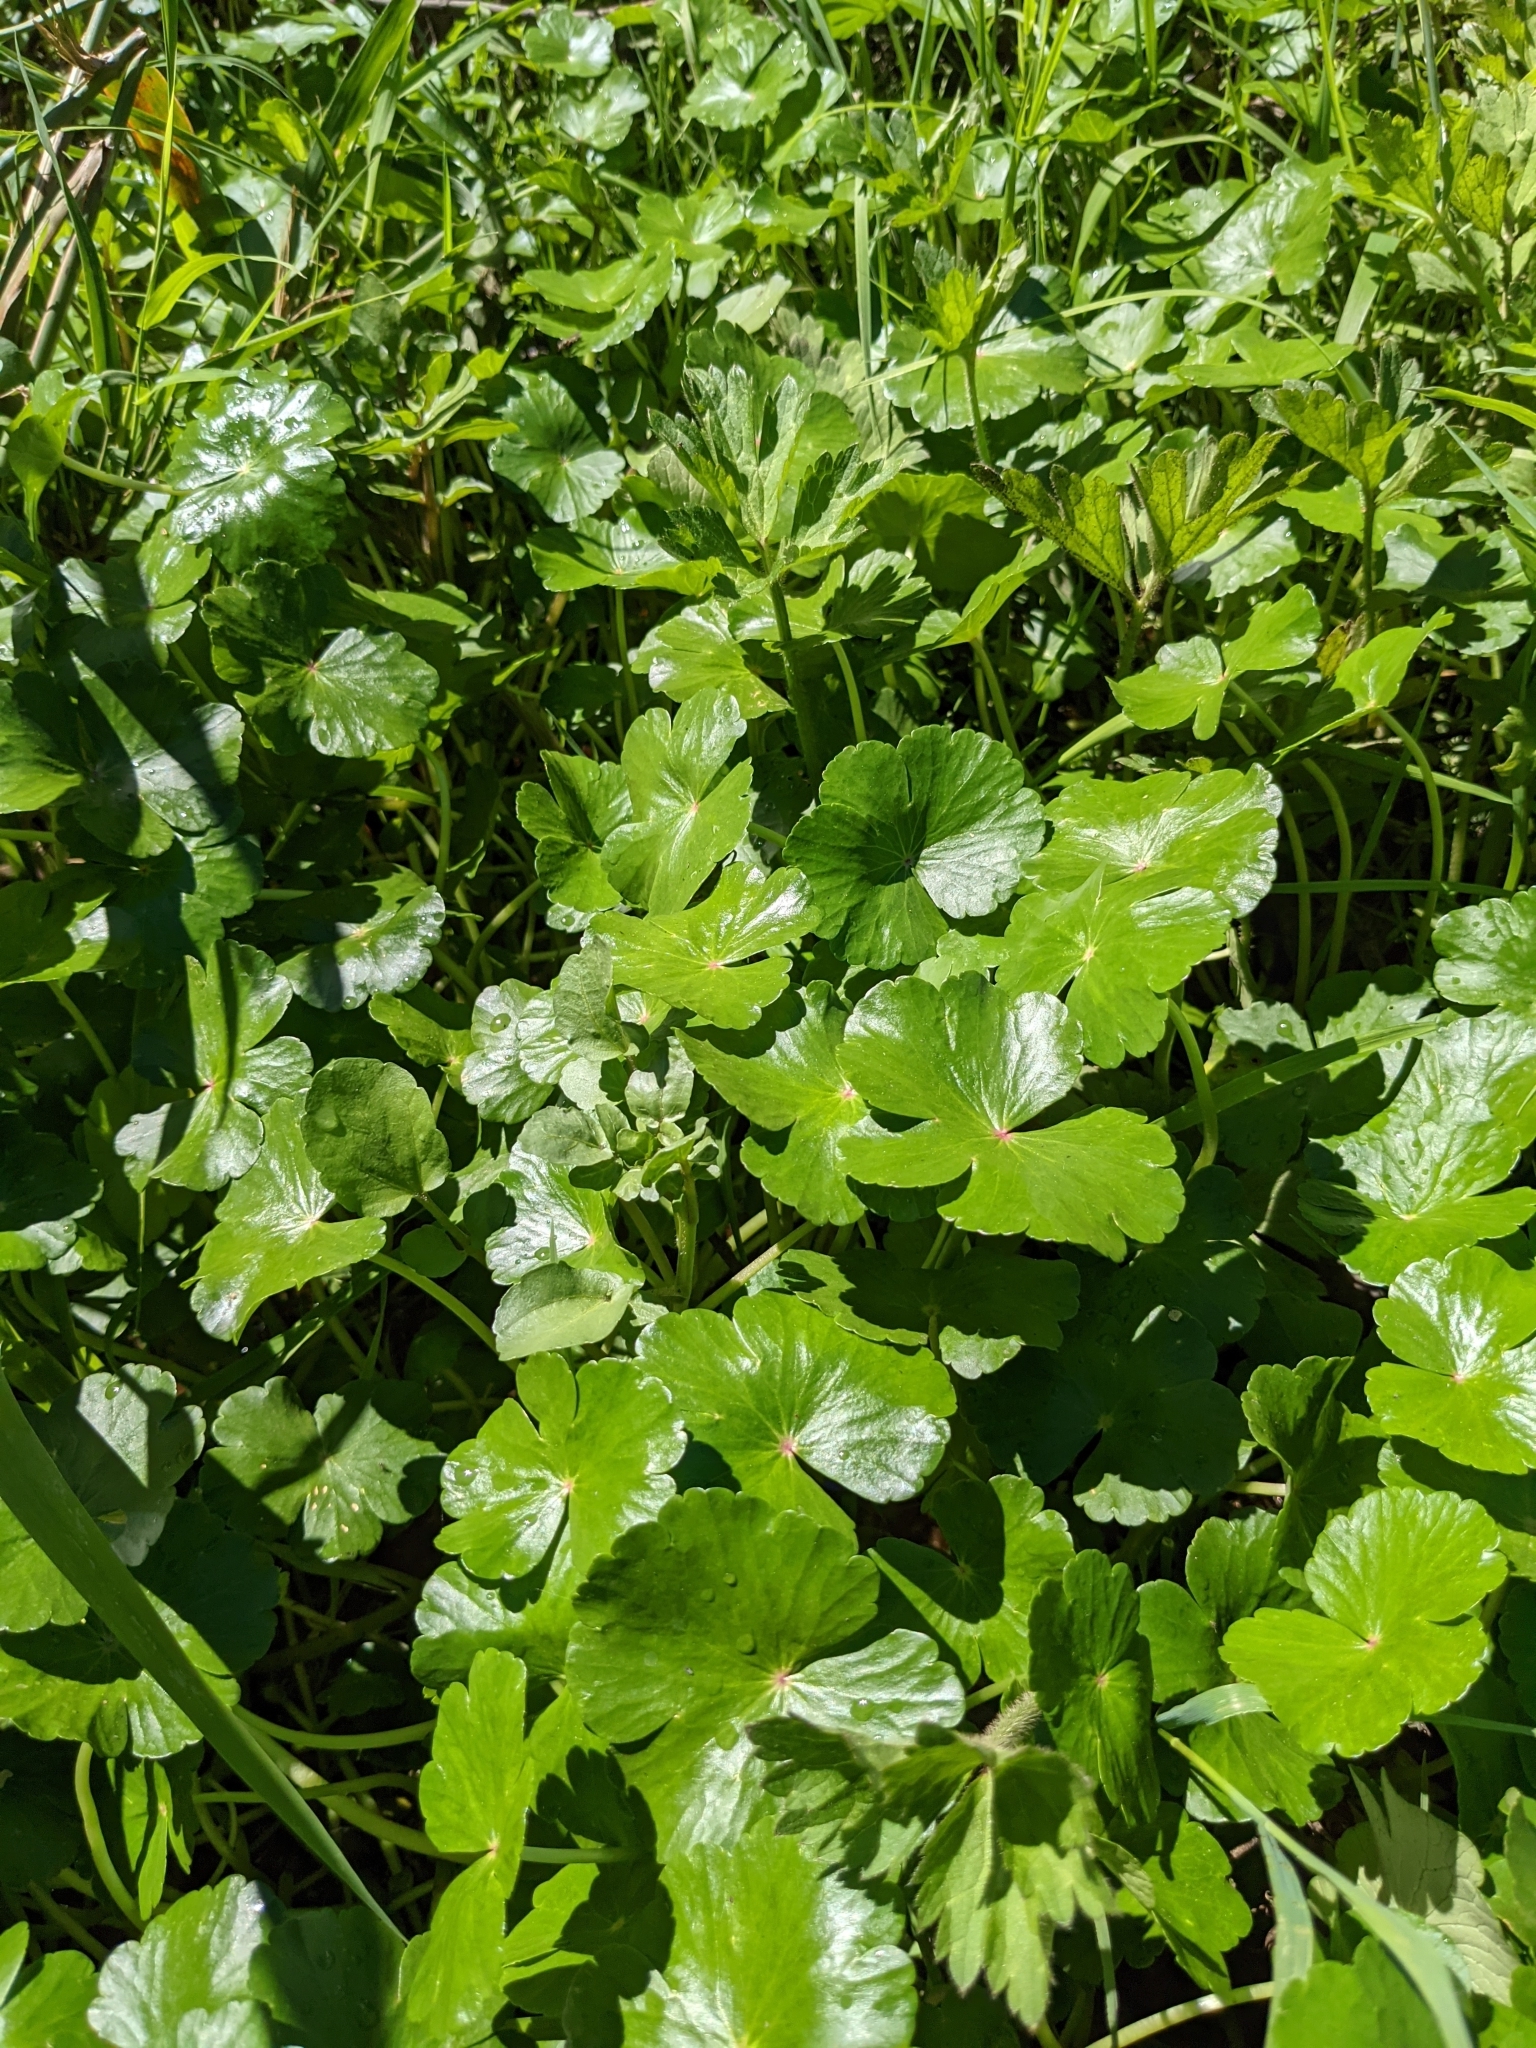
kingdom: Plantae
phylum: Tracheophyta
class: Magnoliopsida
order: Apiales
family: Araliaceae
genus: Hydrocotyle
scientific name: Hydrocotyle ranunculoides
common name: Floating pennywort
